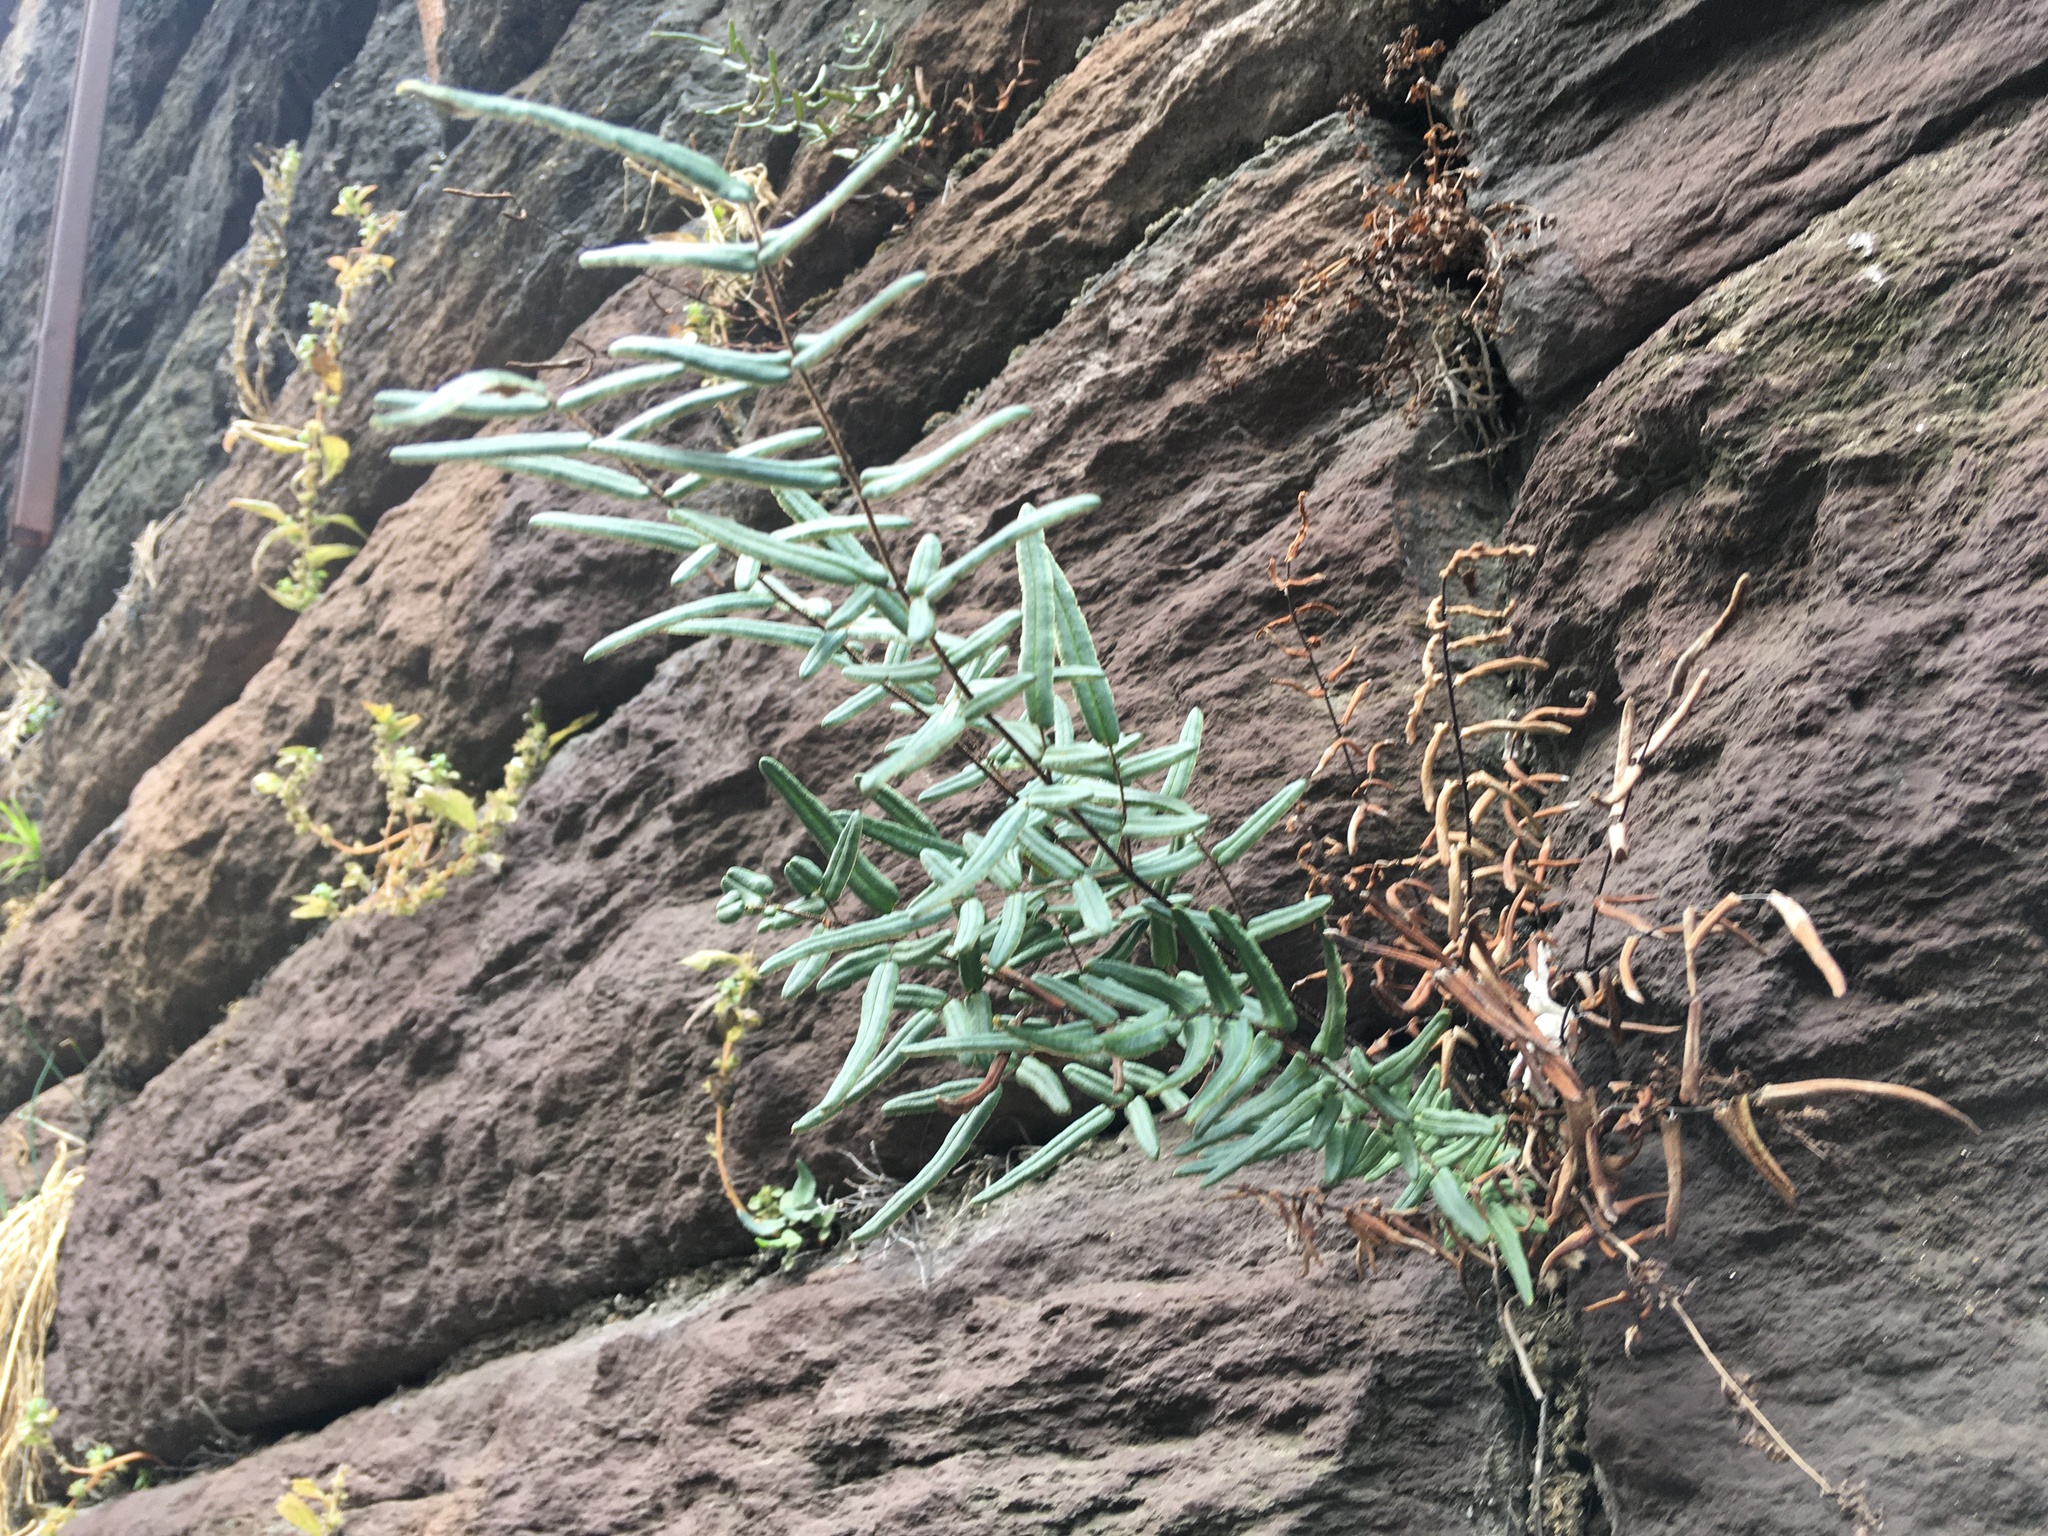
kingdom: Plantae
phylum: Tracheophyta
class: Polypodiopsida
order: Polypodiales
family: Pteridaceae
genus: Pellaea
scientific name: Pellaea atropurpurea
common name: Hairy cliffbrake
